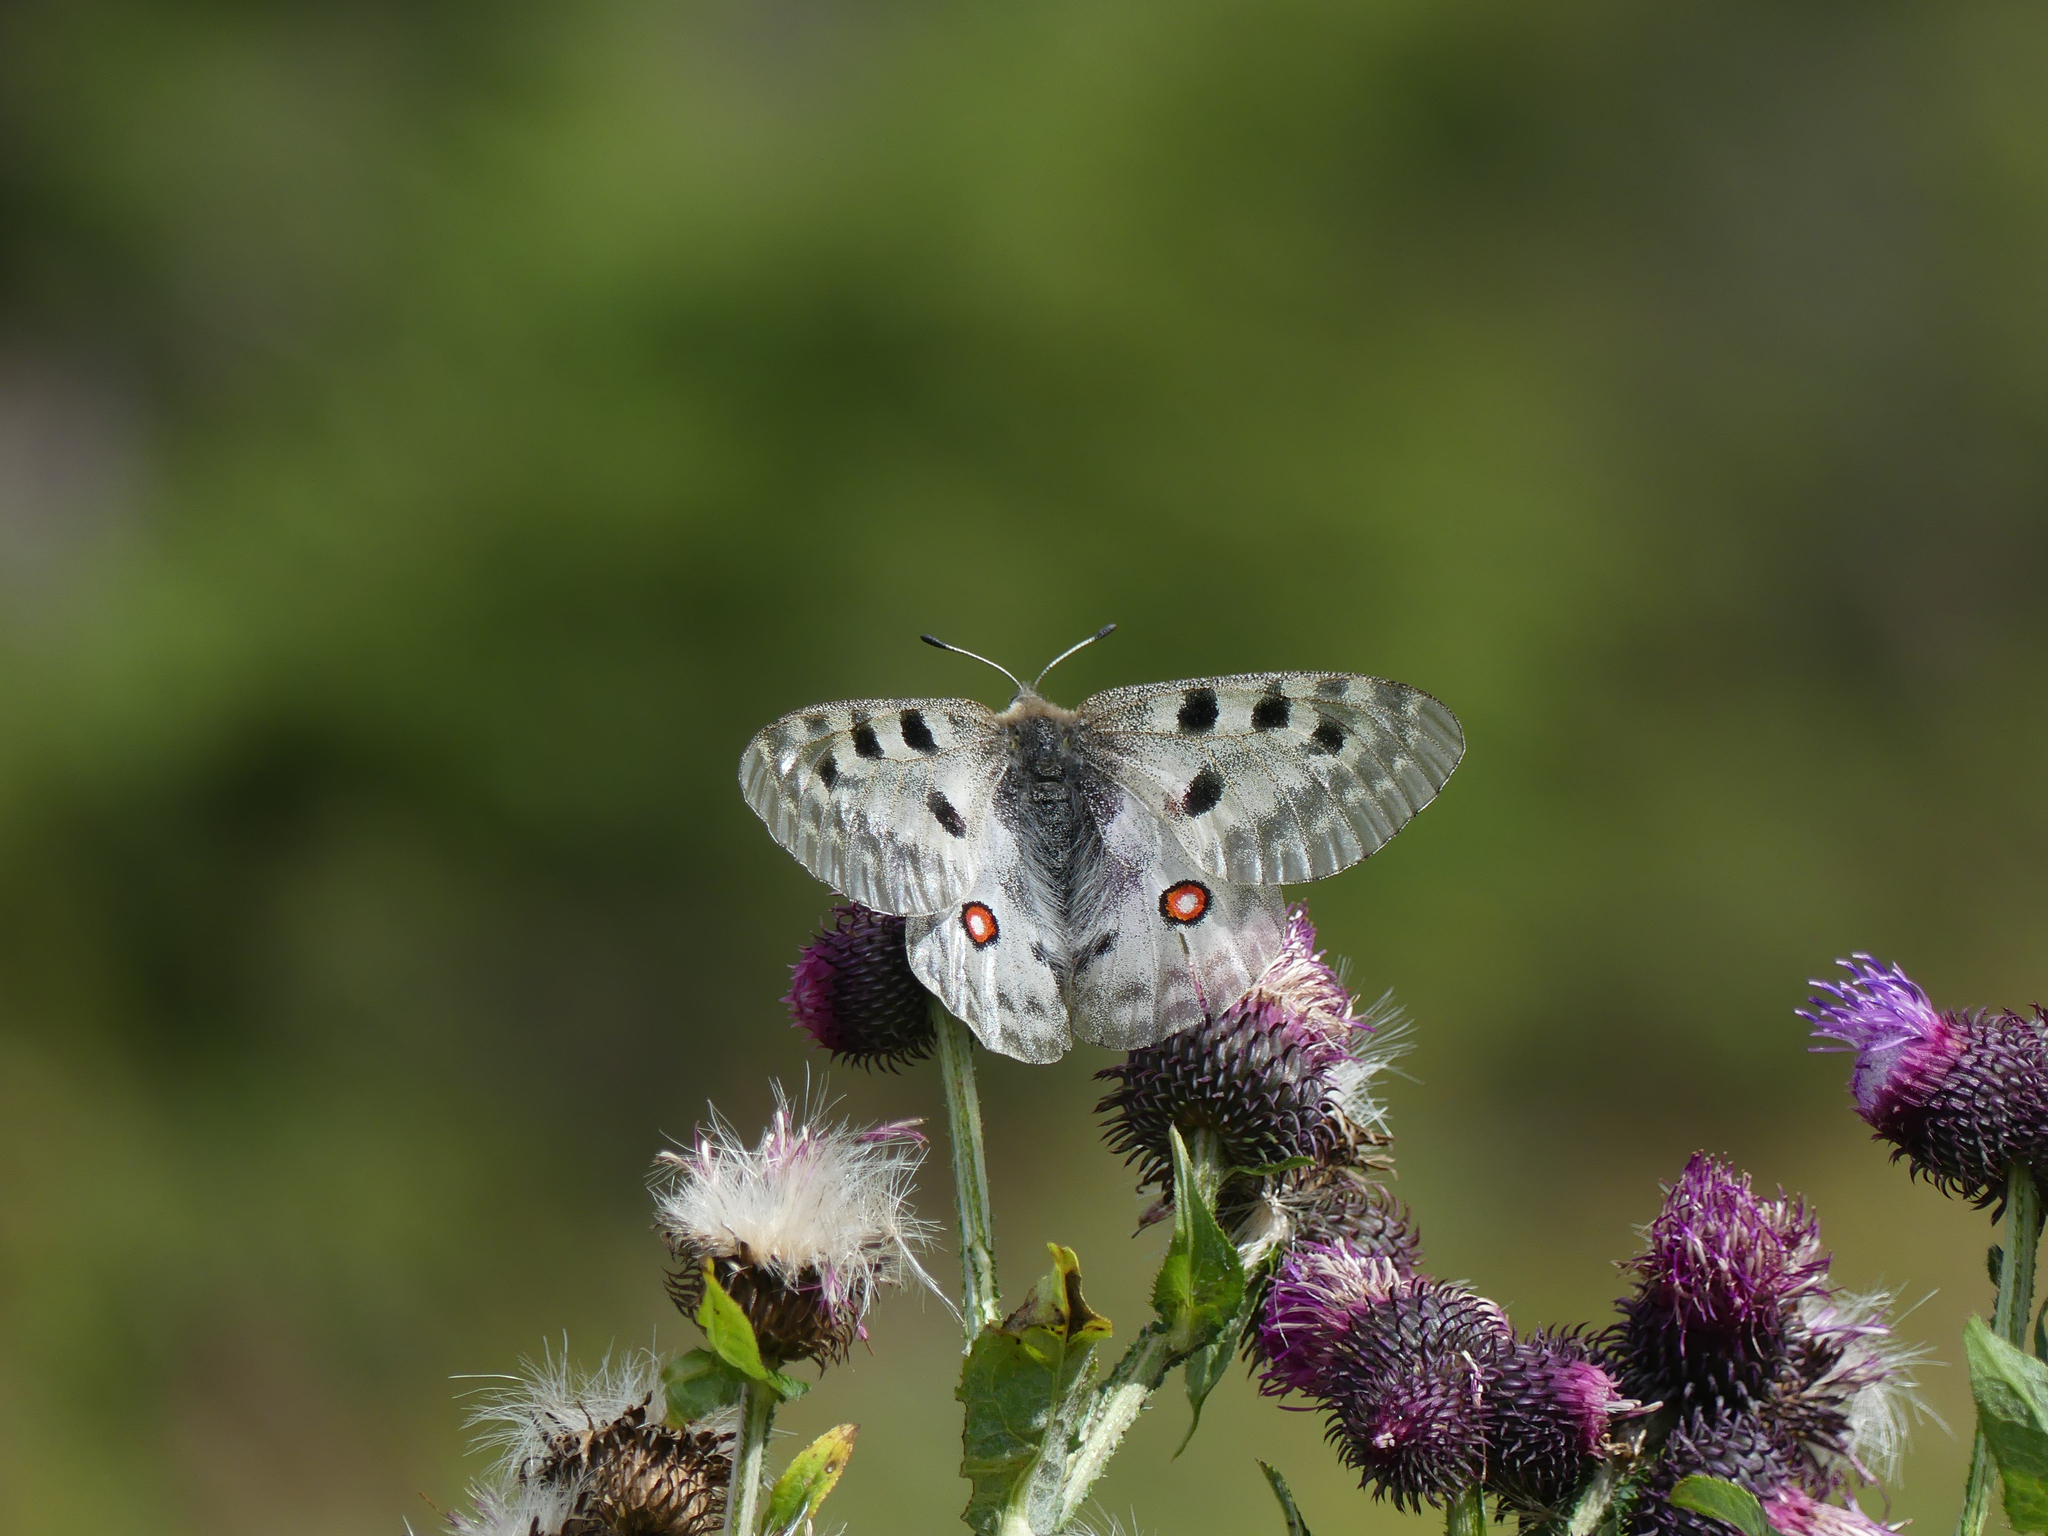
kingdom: Animalia
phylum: Arthropoda
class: Insecta
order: Lepidoptera
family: Papilionidae
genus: Parnassius
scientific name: Parnassius apollo
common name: Apollo
